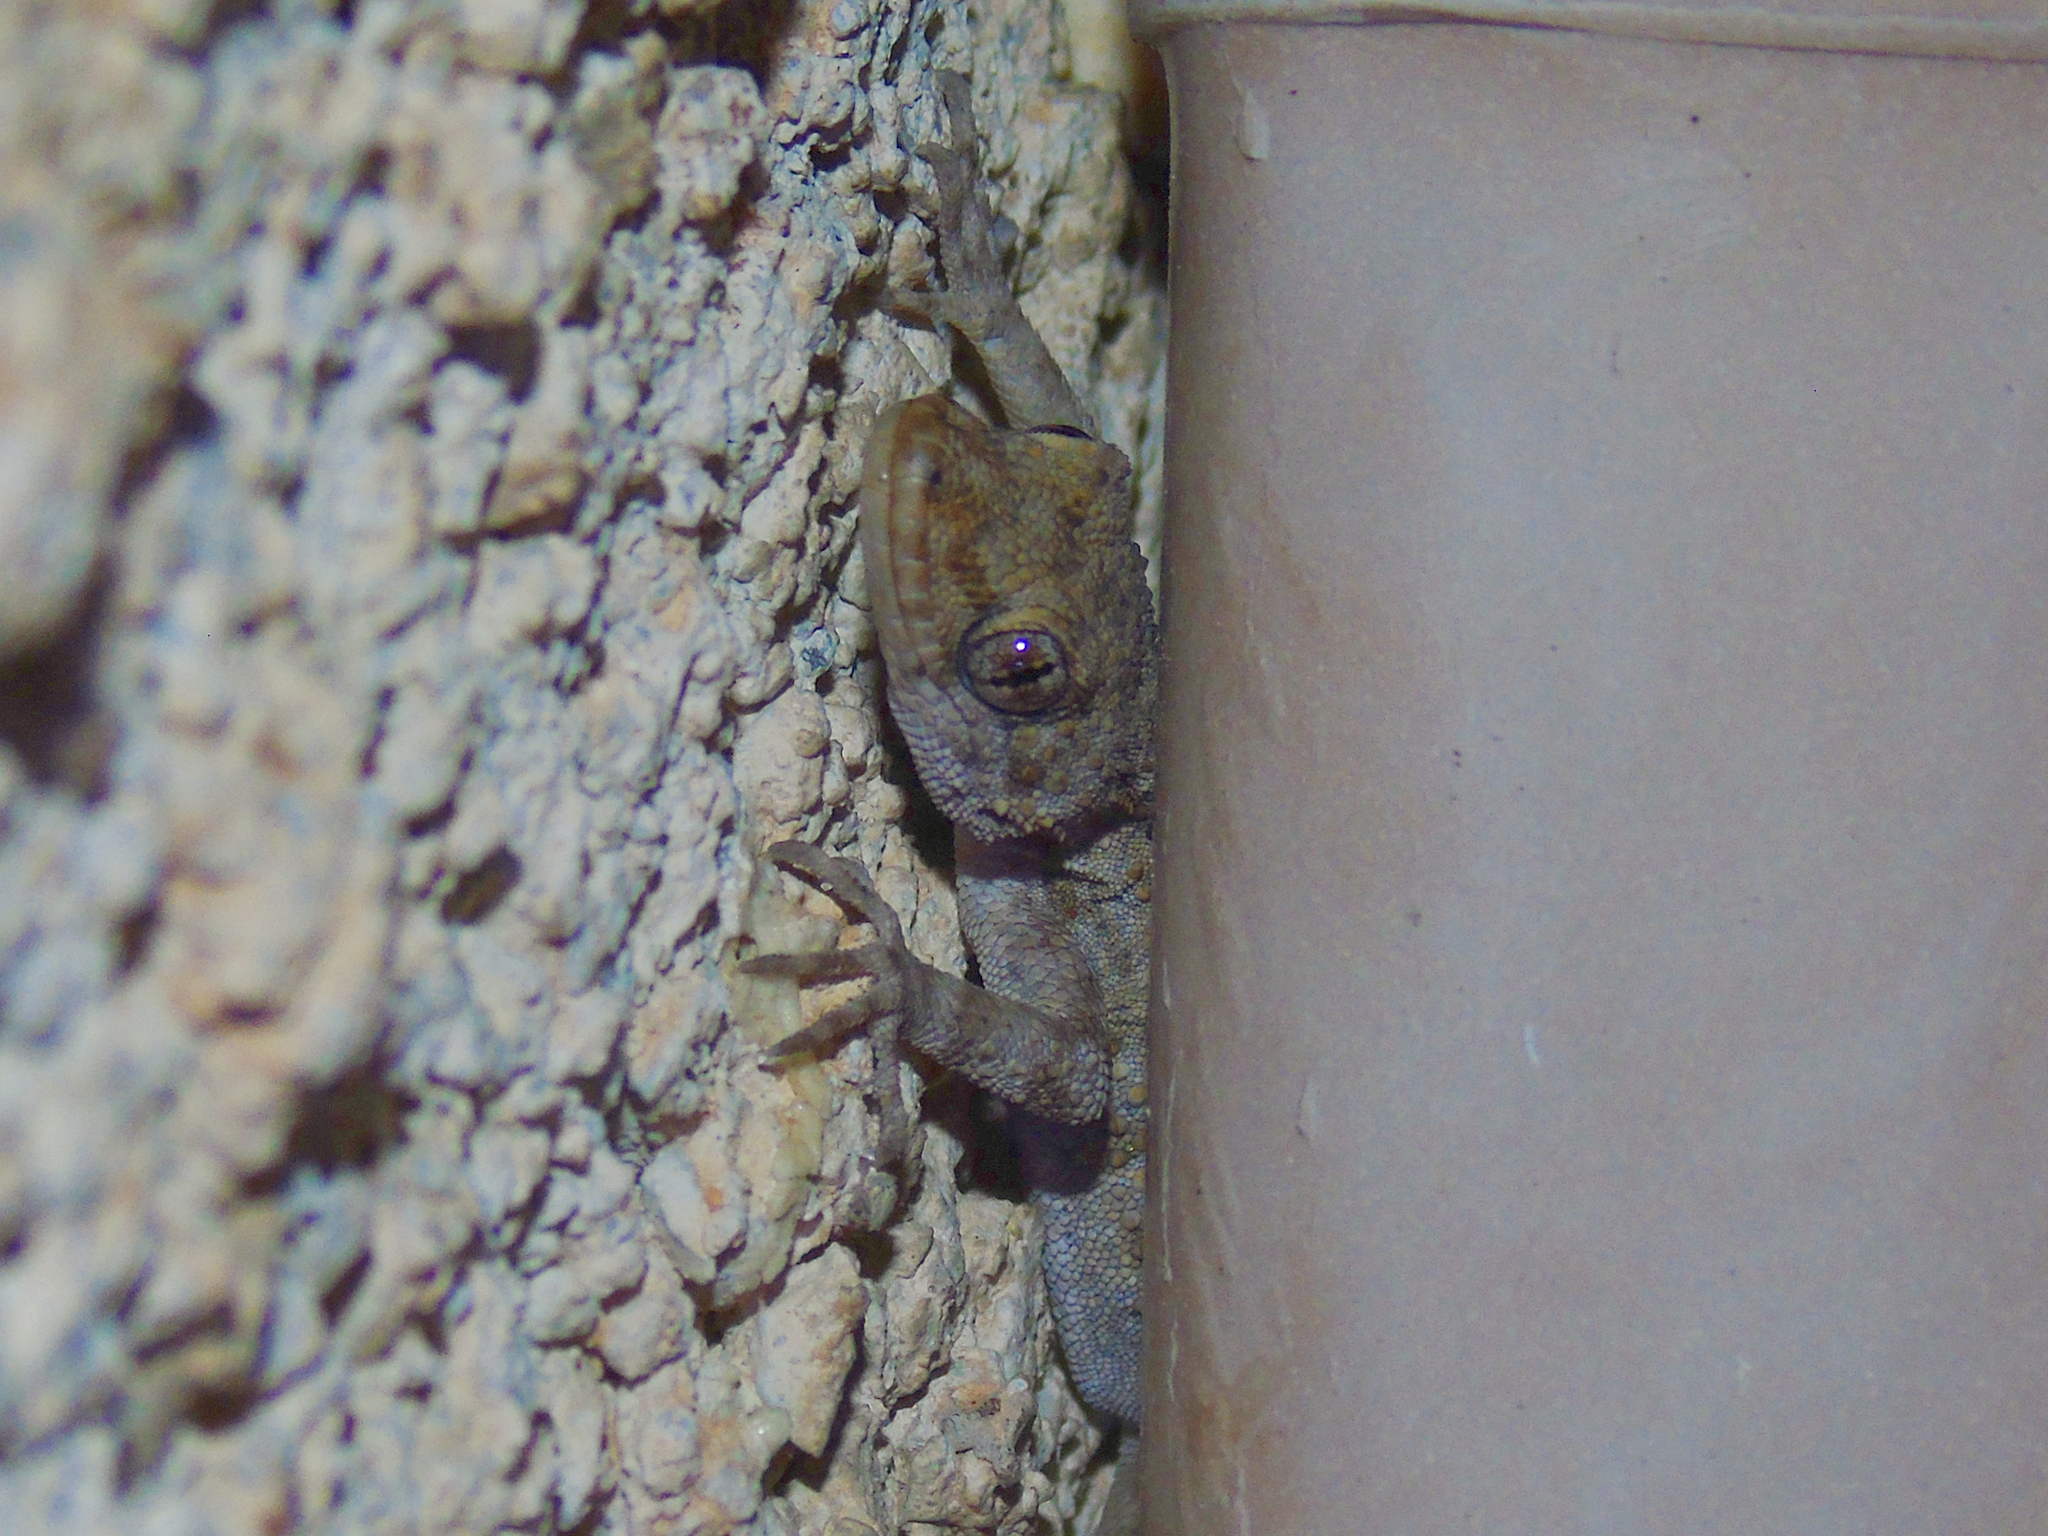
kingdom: Animalia
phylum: Chordata
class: Squamata
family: Gekkonidae
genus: Mediodactylus
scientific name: Mediodactylus kotschyi
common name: Kotschy's gecko
